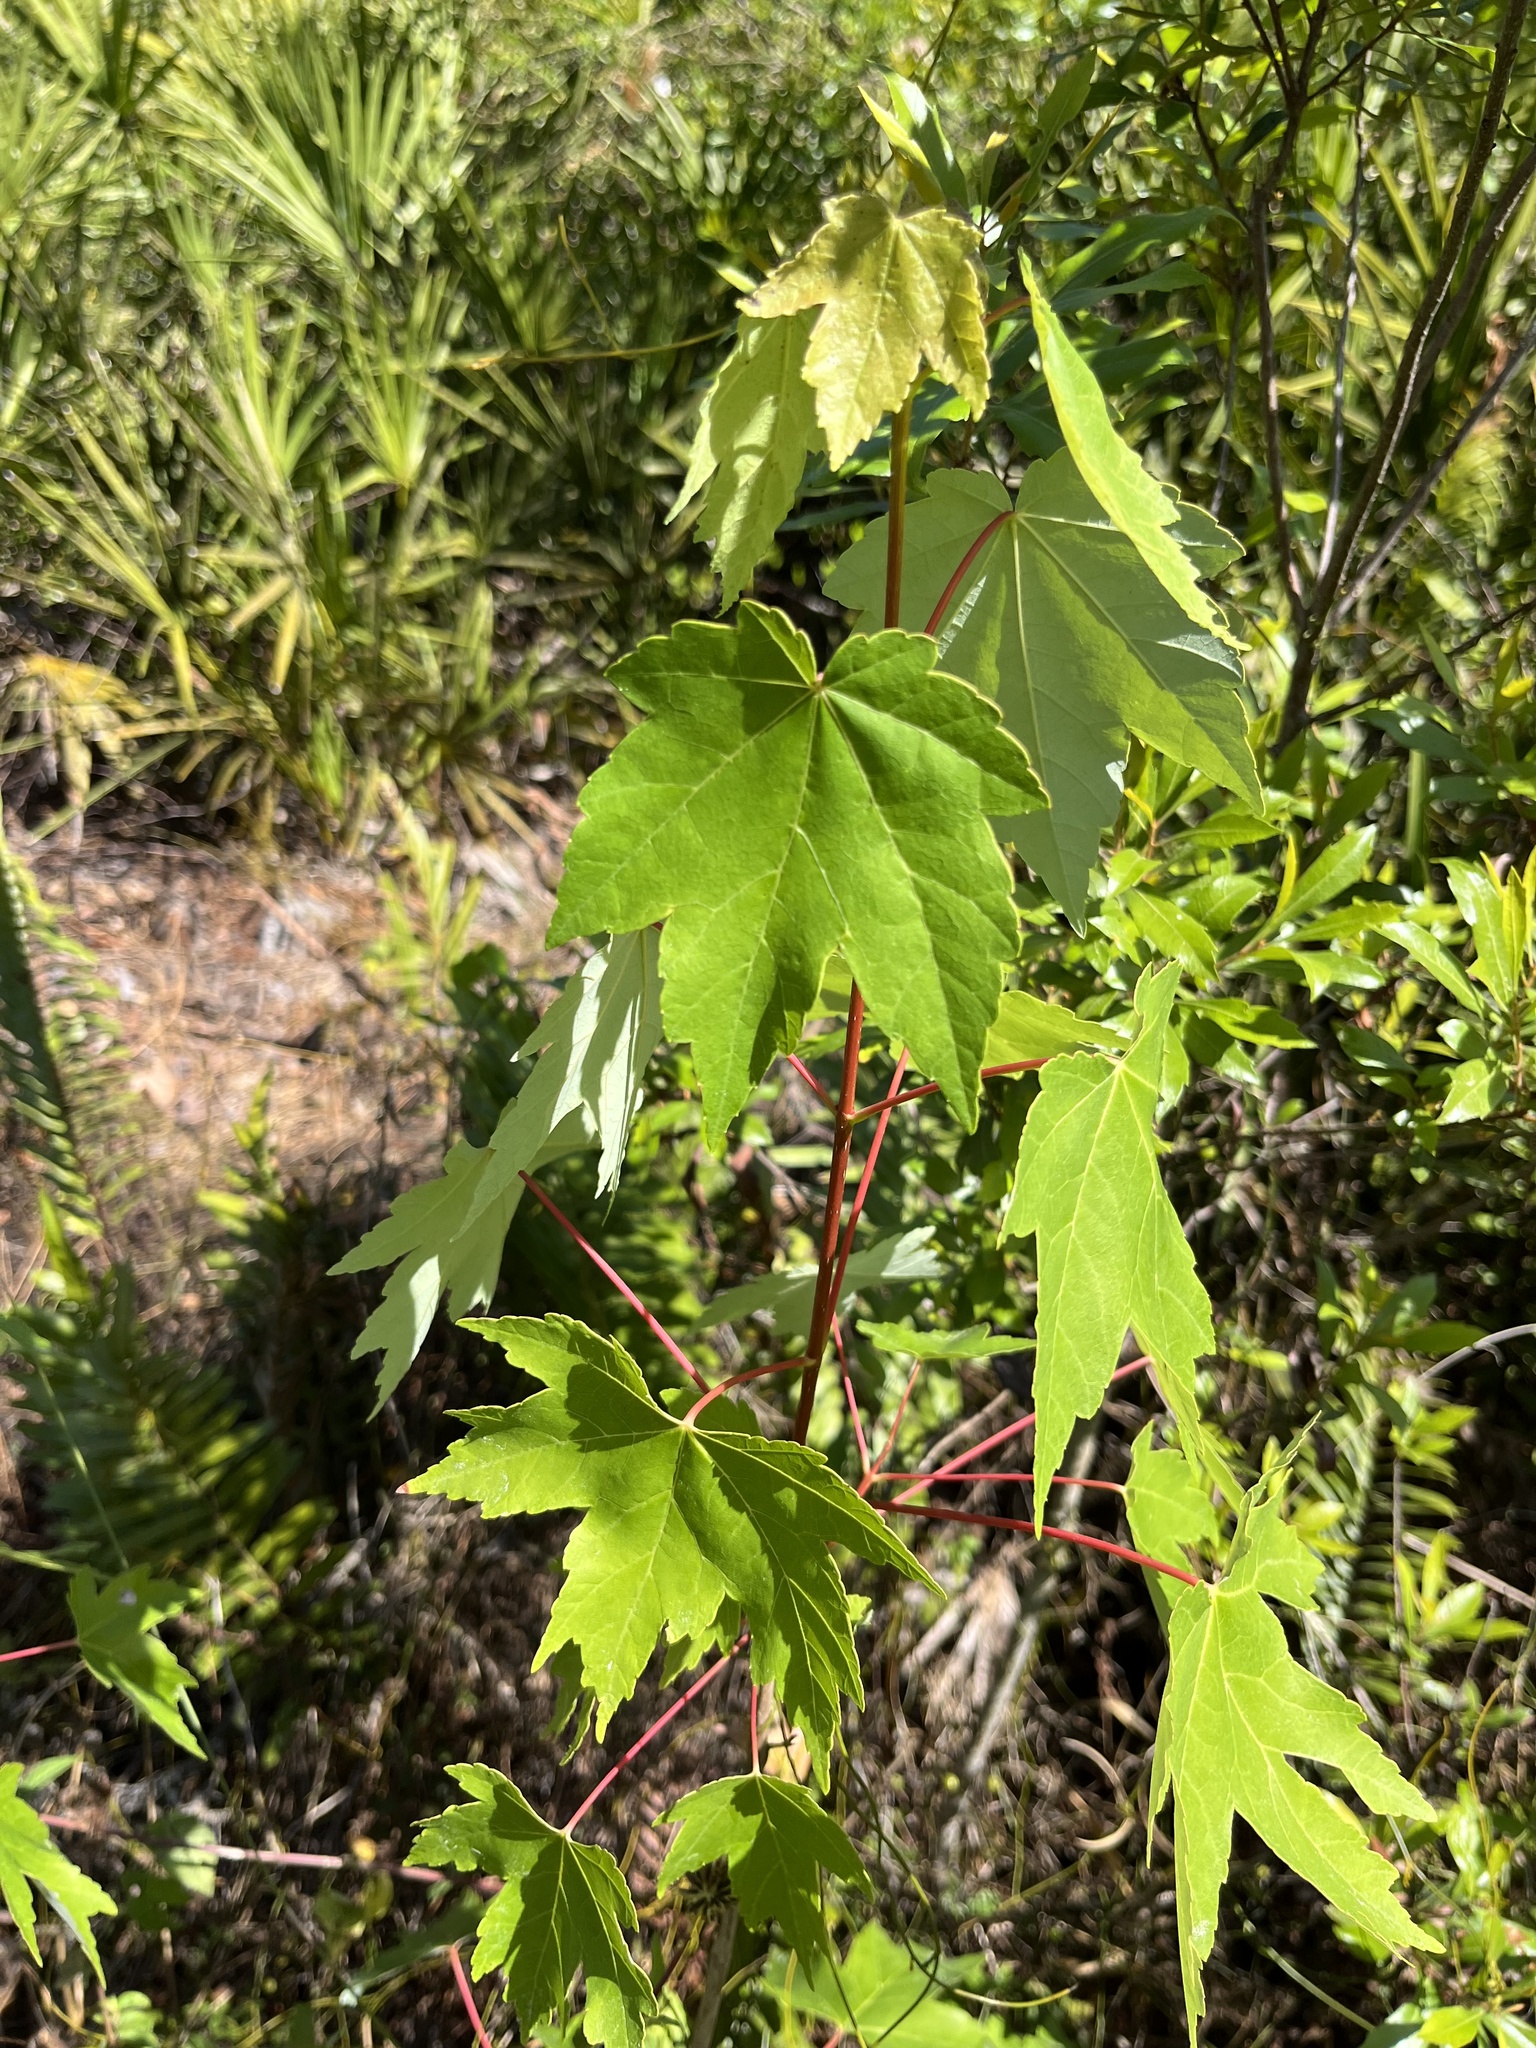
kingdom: Plantae
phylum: Tracheophyta
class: Magnoliopsida
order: Sapindales
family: Sapindaceae
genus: Acer
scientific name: Acer rubrum
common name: Red maple
